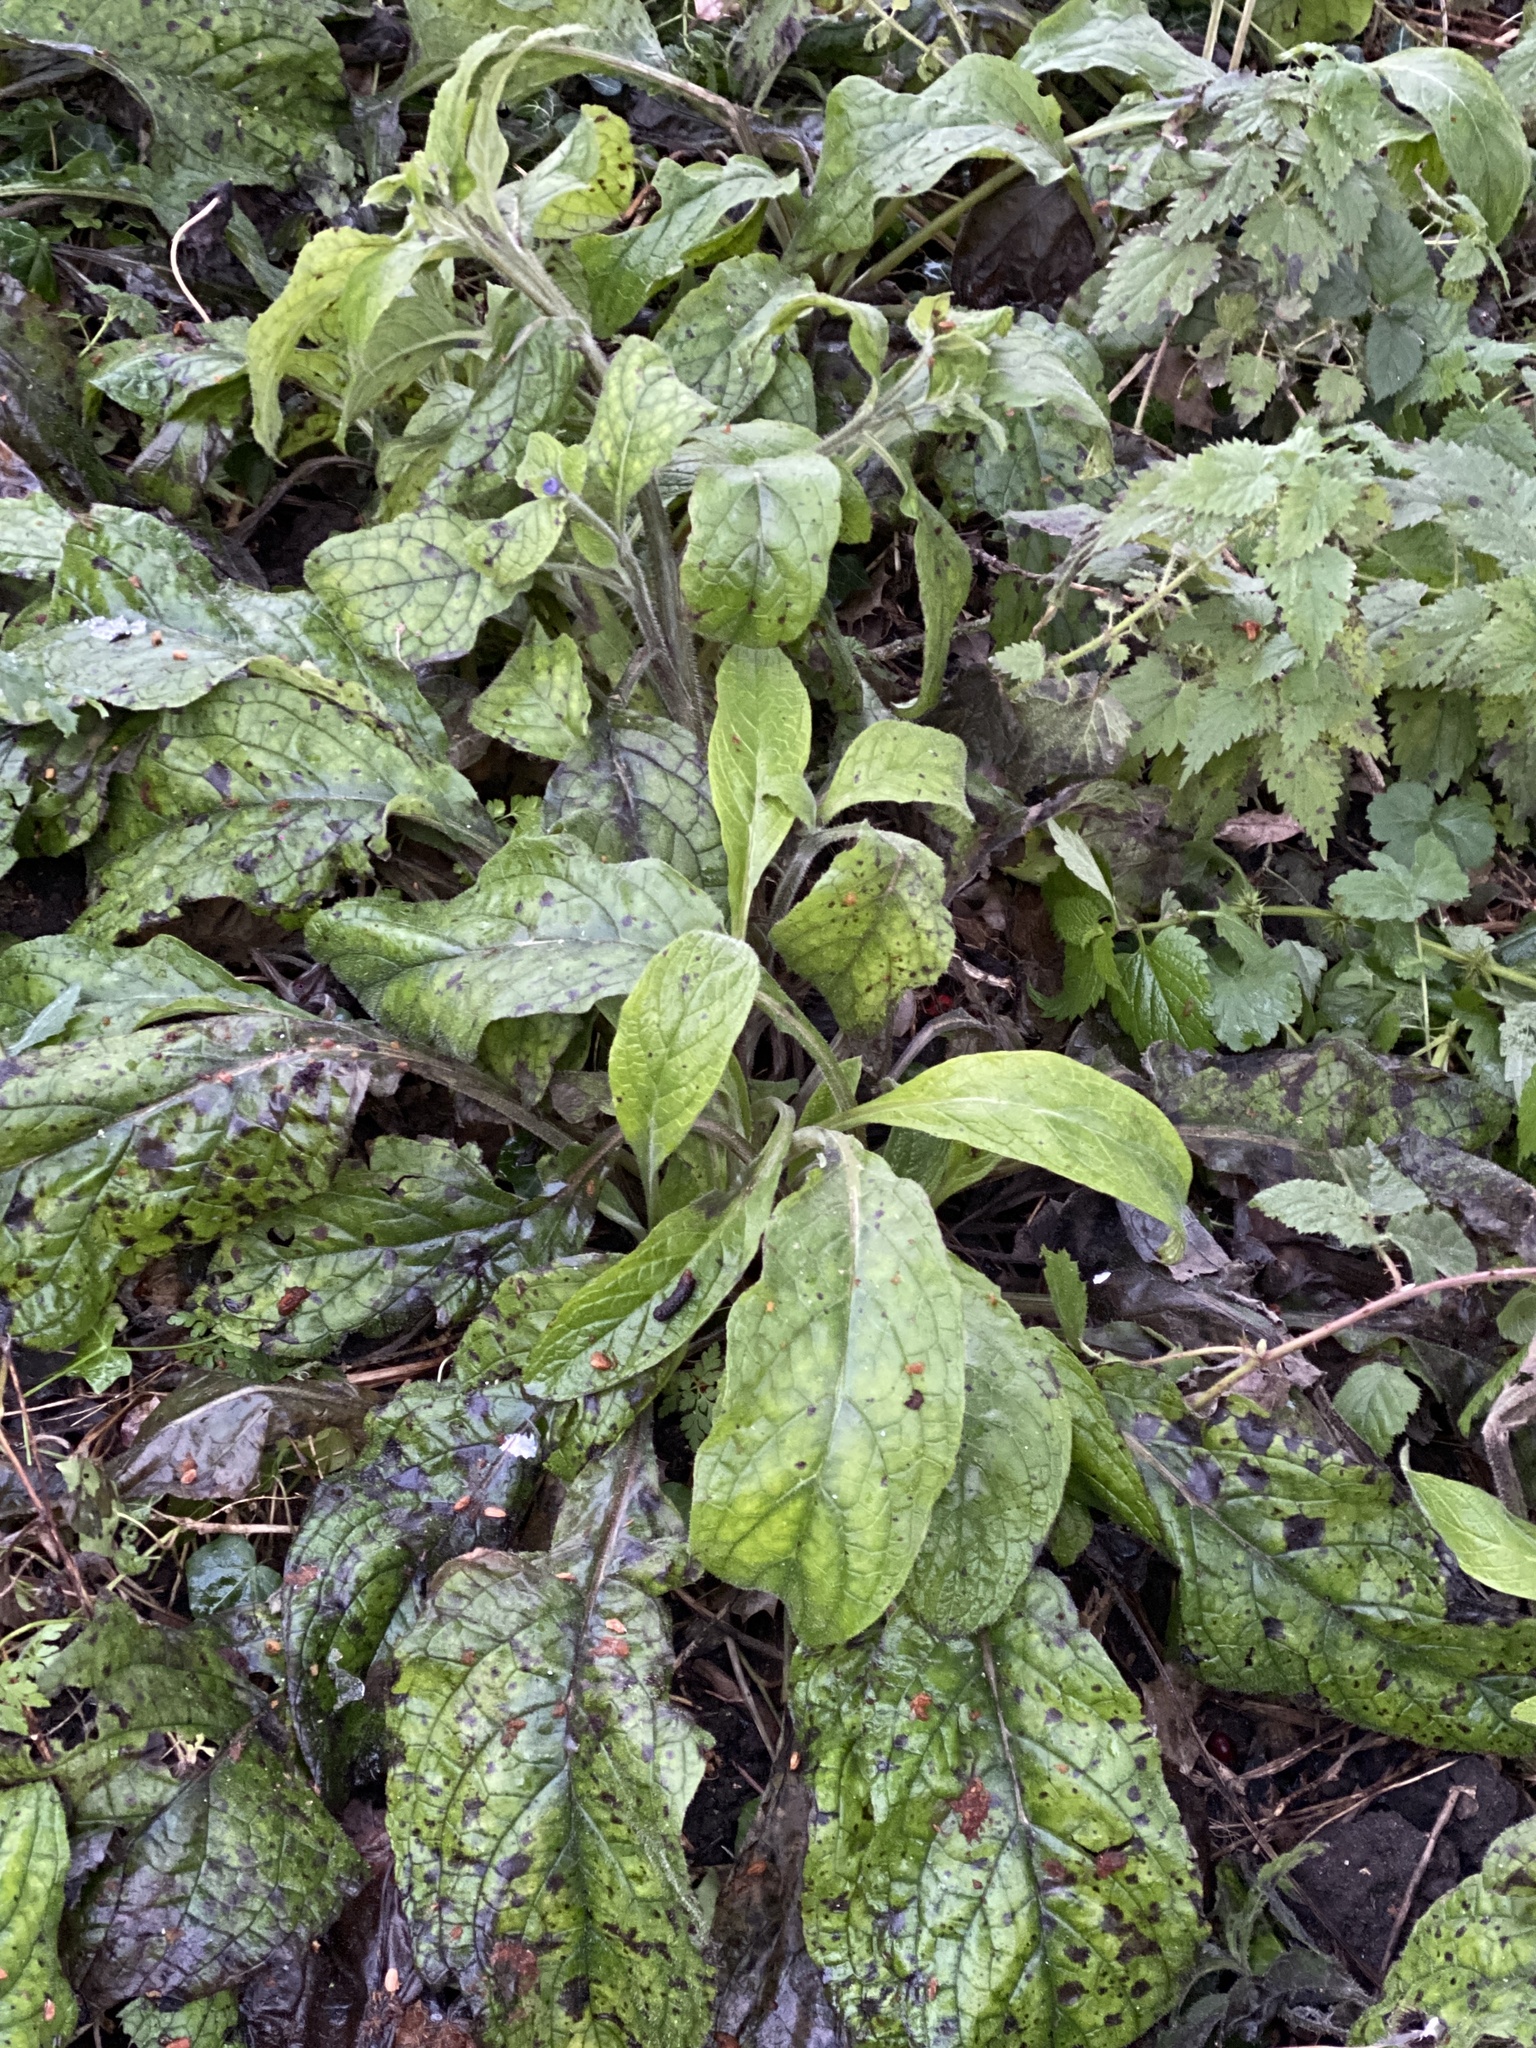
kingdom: Plantae
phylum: Tracheophyta
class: Magnoliopsida
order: Boraginales
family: Boraginaceae
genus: Pentaglottis
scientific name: Pentaglottis sempervirens
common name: Green alkanet
